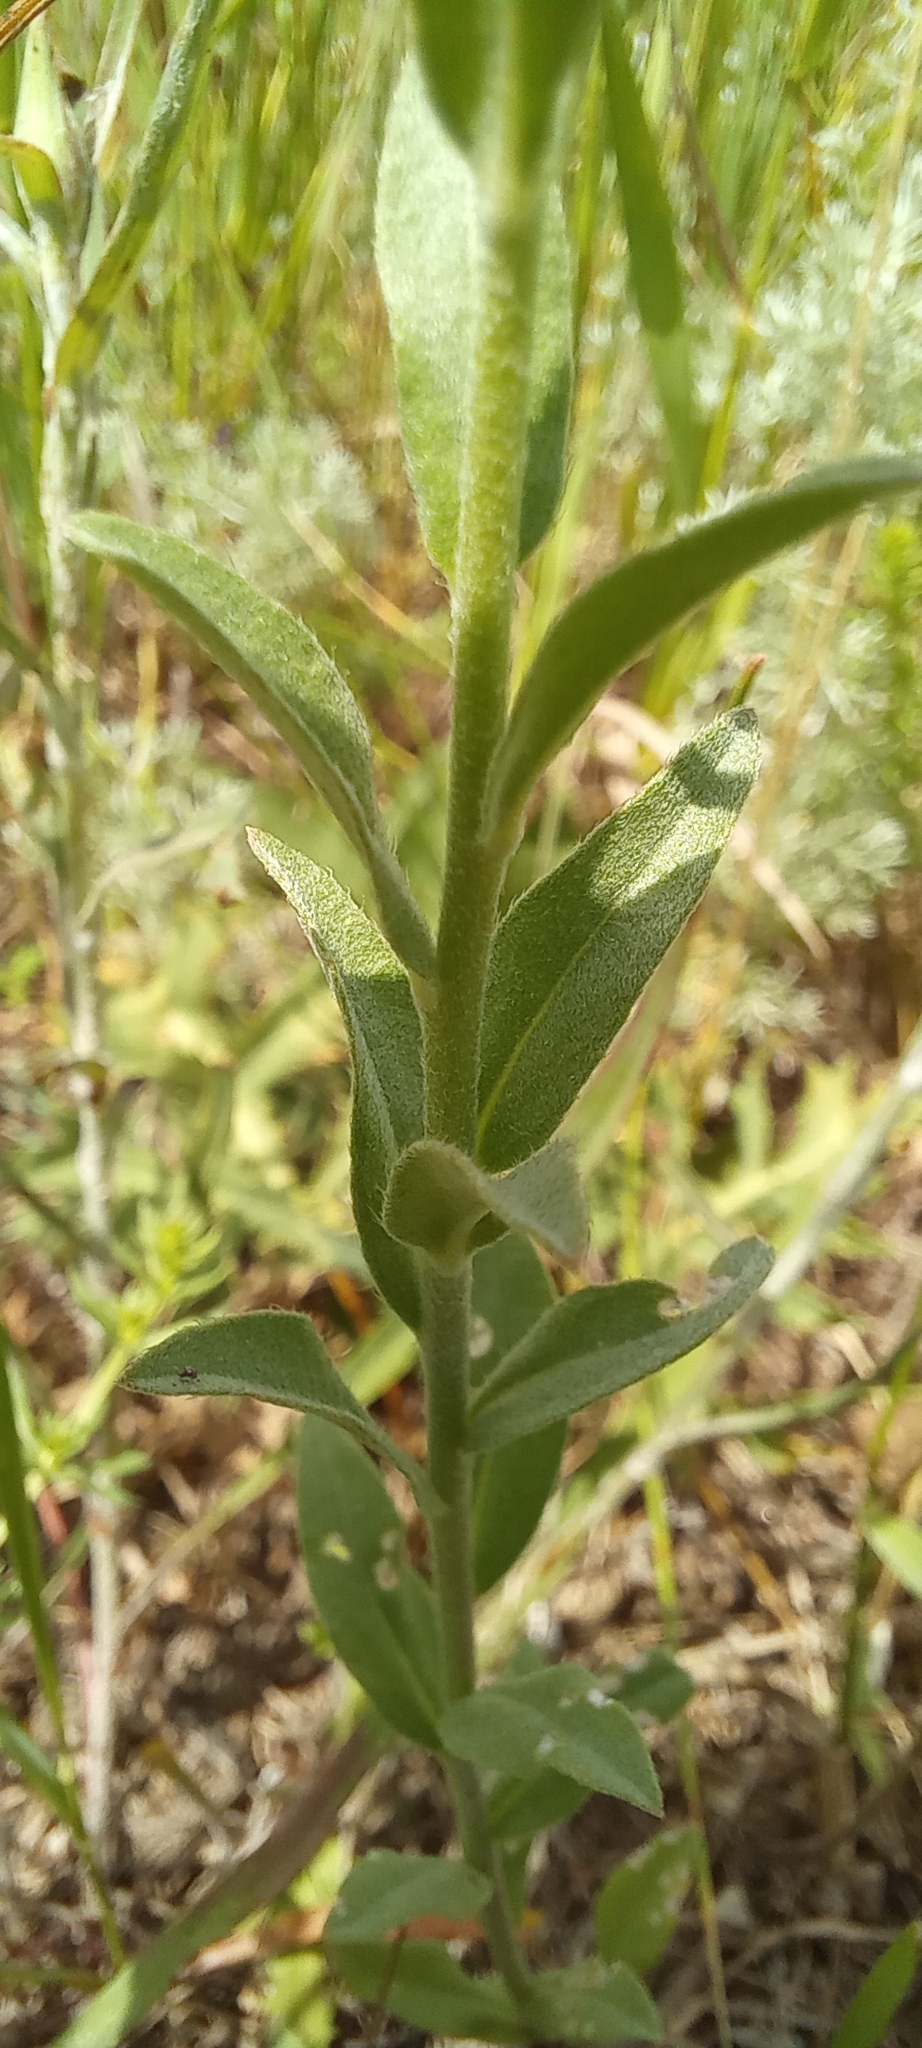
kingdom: Plantae
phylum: Tracheophyta
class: Magnoliopsida
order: Brassicales
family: Brassicaceae
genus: Berteroa
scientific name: Berteroa incana
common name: Hoary alison
